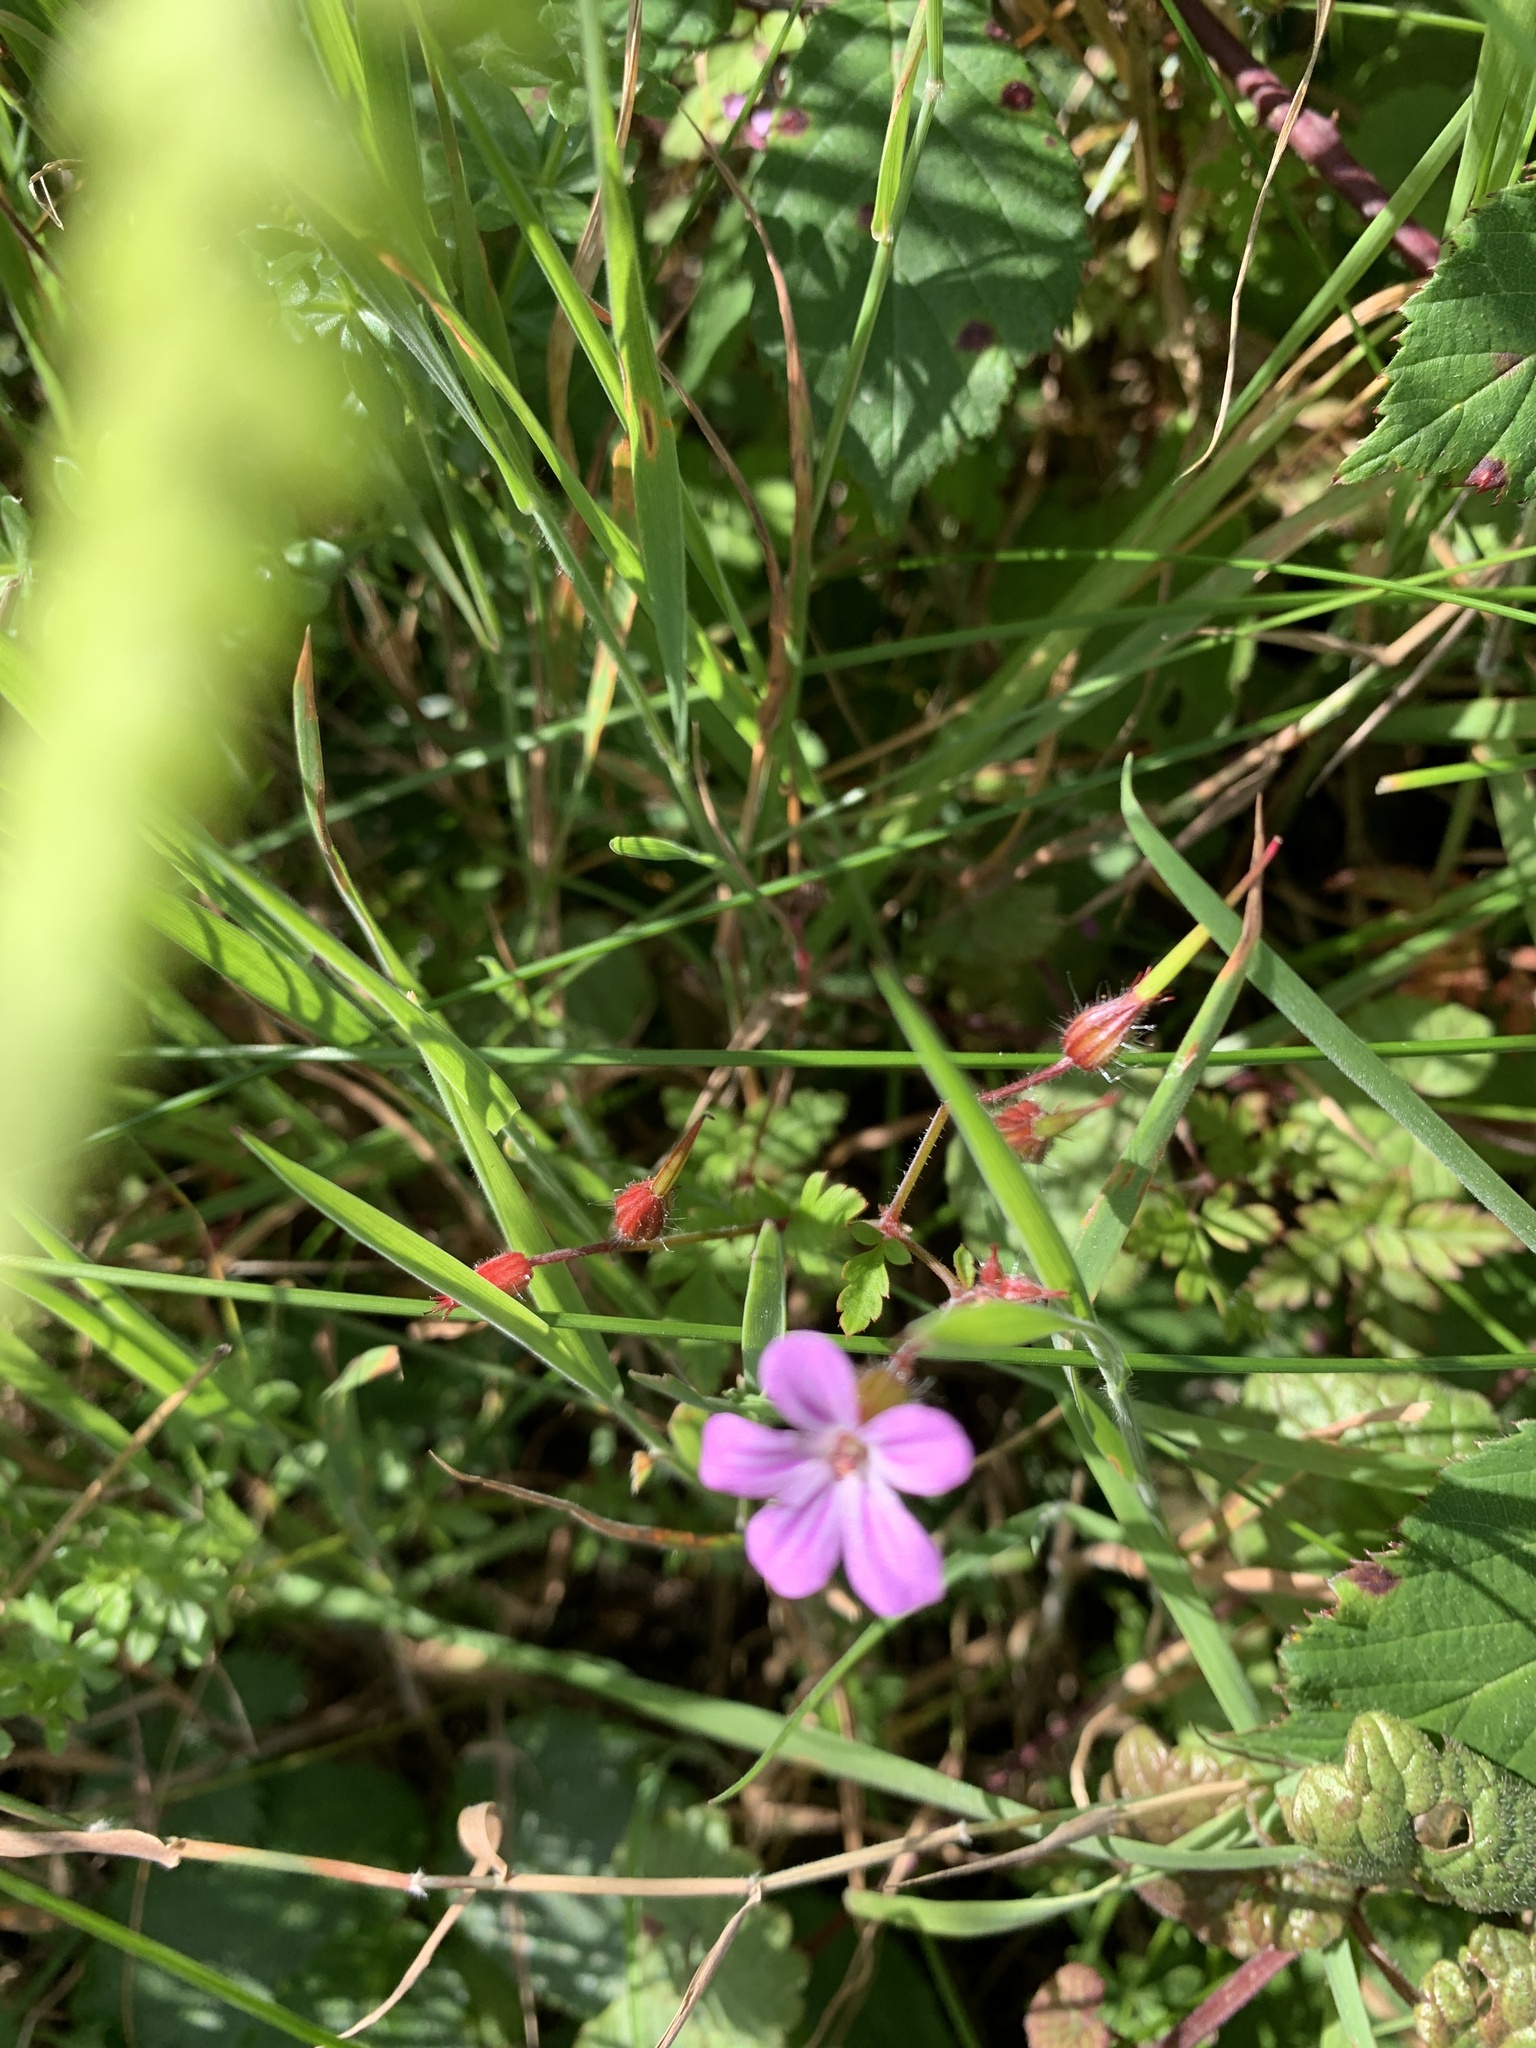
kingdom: Plantae
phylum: Tracheophyta
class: Magnoliopsida
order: Geraniales
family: Geraniaceae
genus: Geranium
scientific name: Geranium robertianum
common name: Herb-robert
